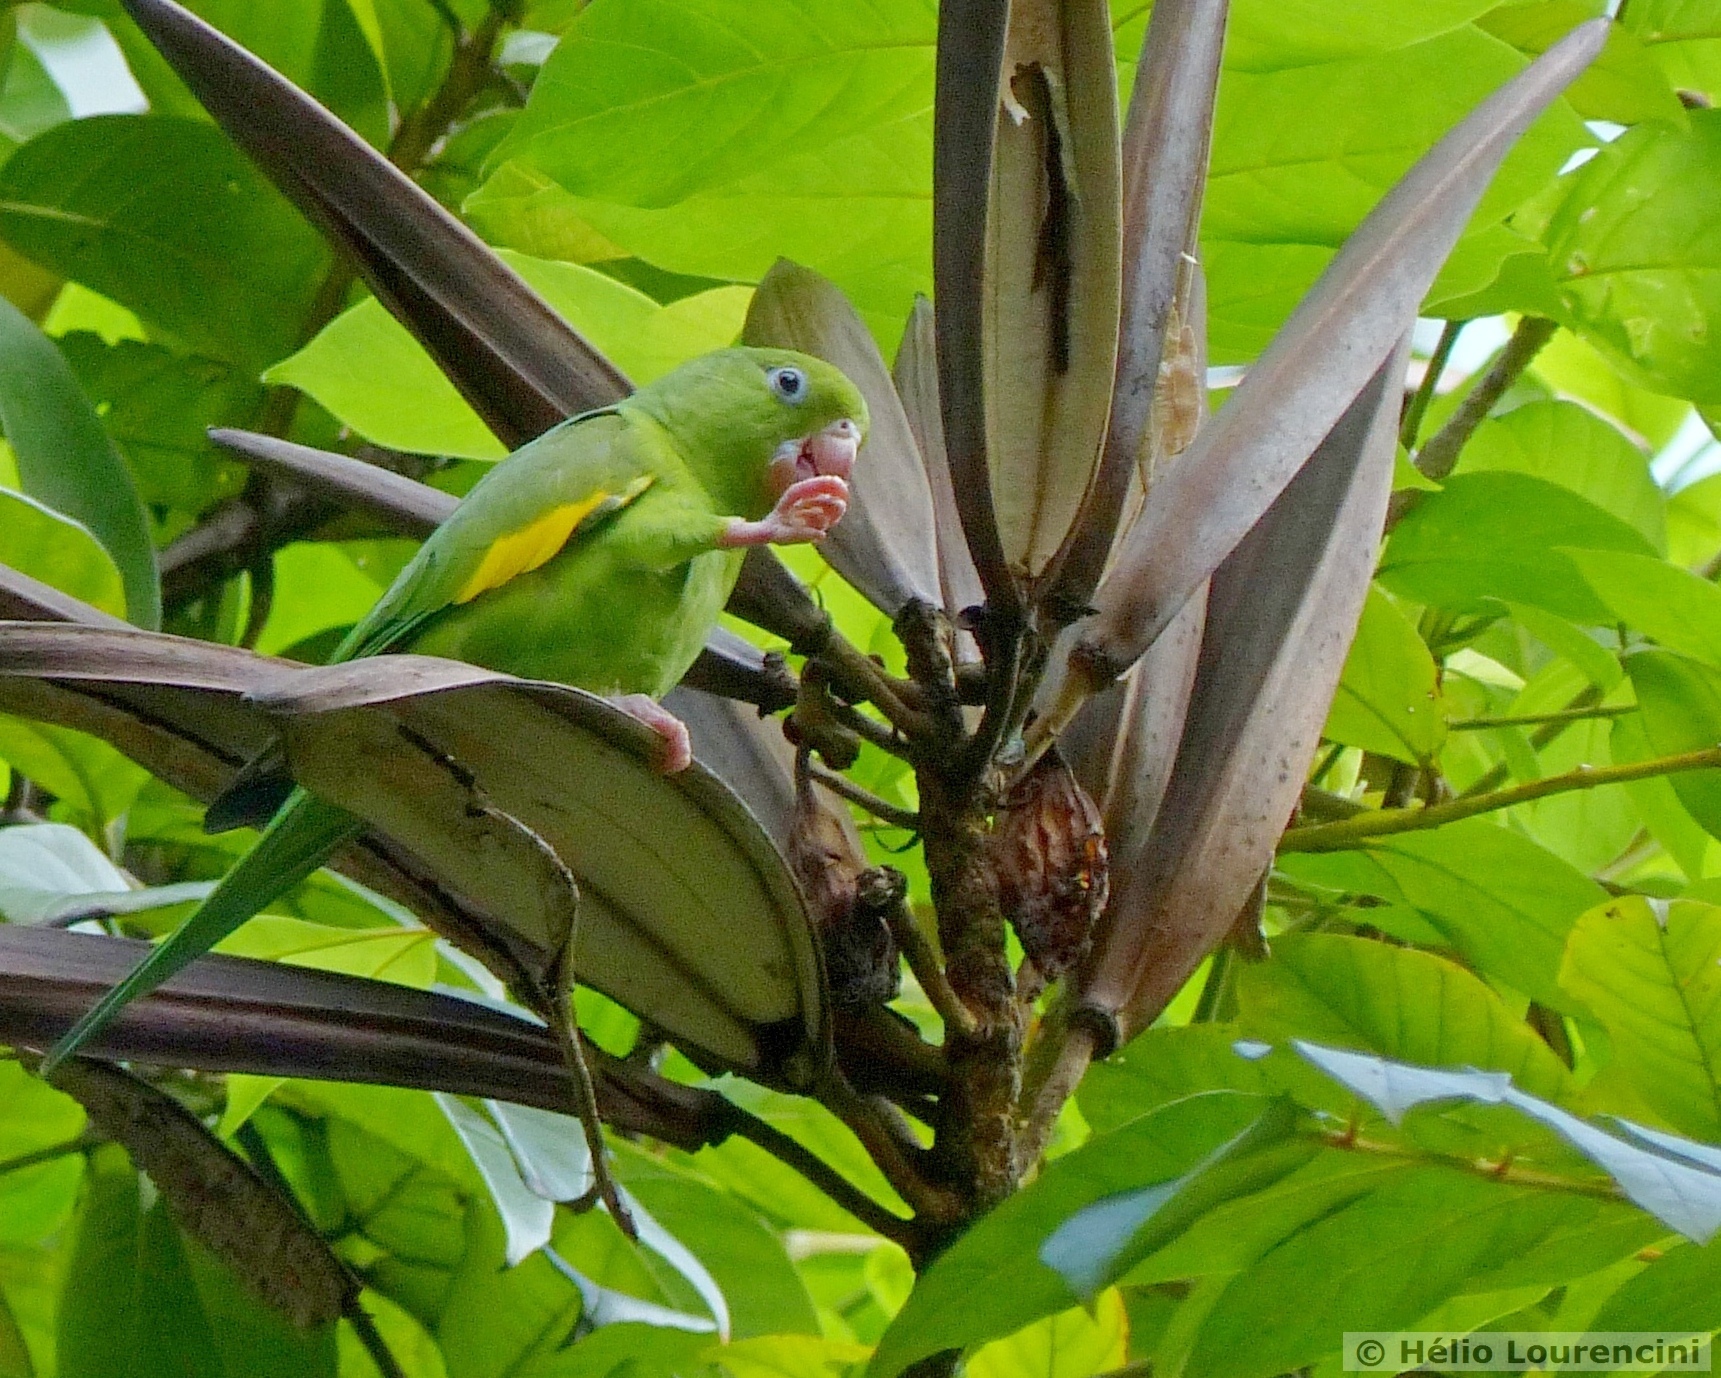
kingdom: Animalia
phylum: Chordata
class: Aves
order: Psittaciformes
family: Psittacidae
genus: Brotogeris
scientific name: Brotogeris chiriri
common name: Yellow-chevroned parakeet
